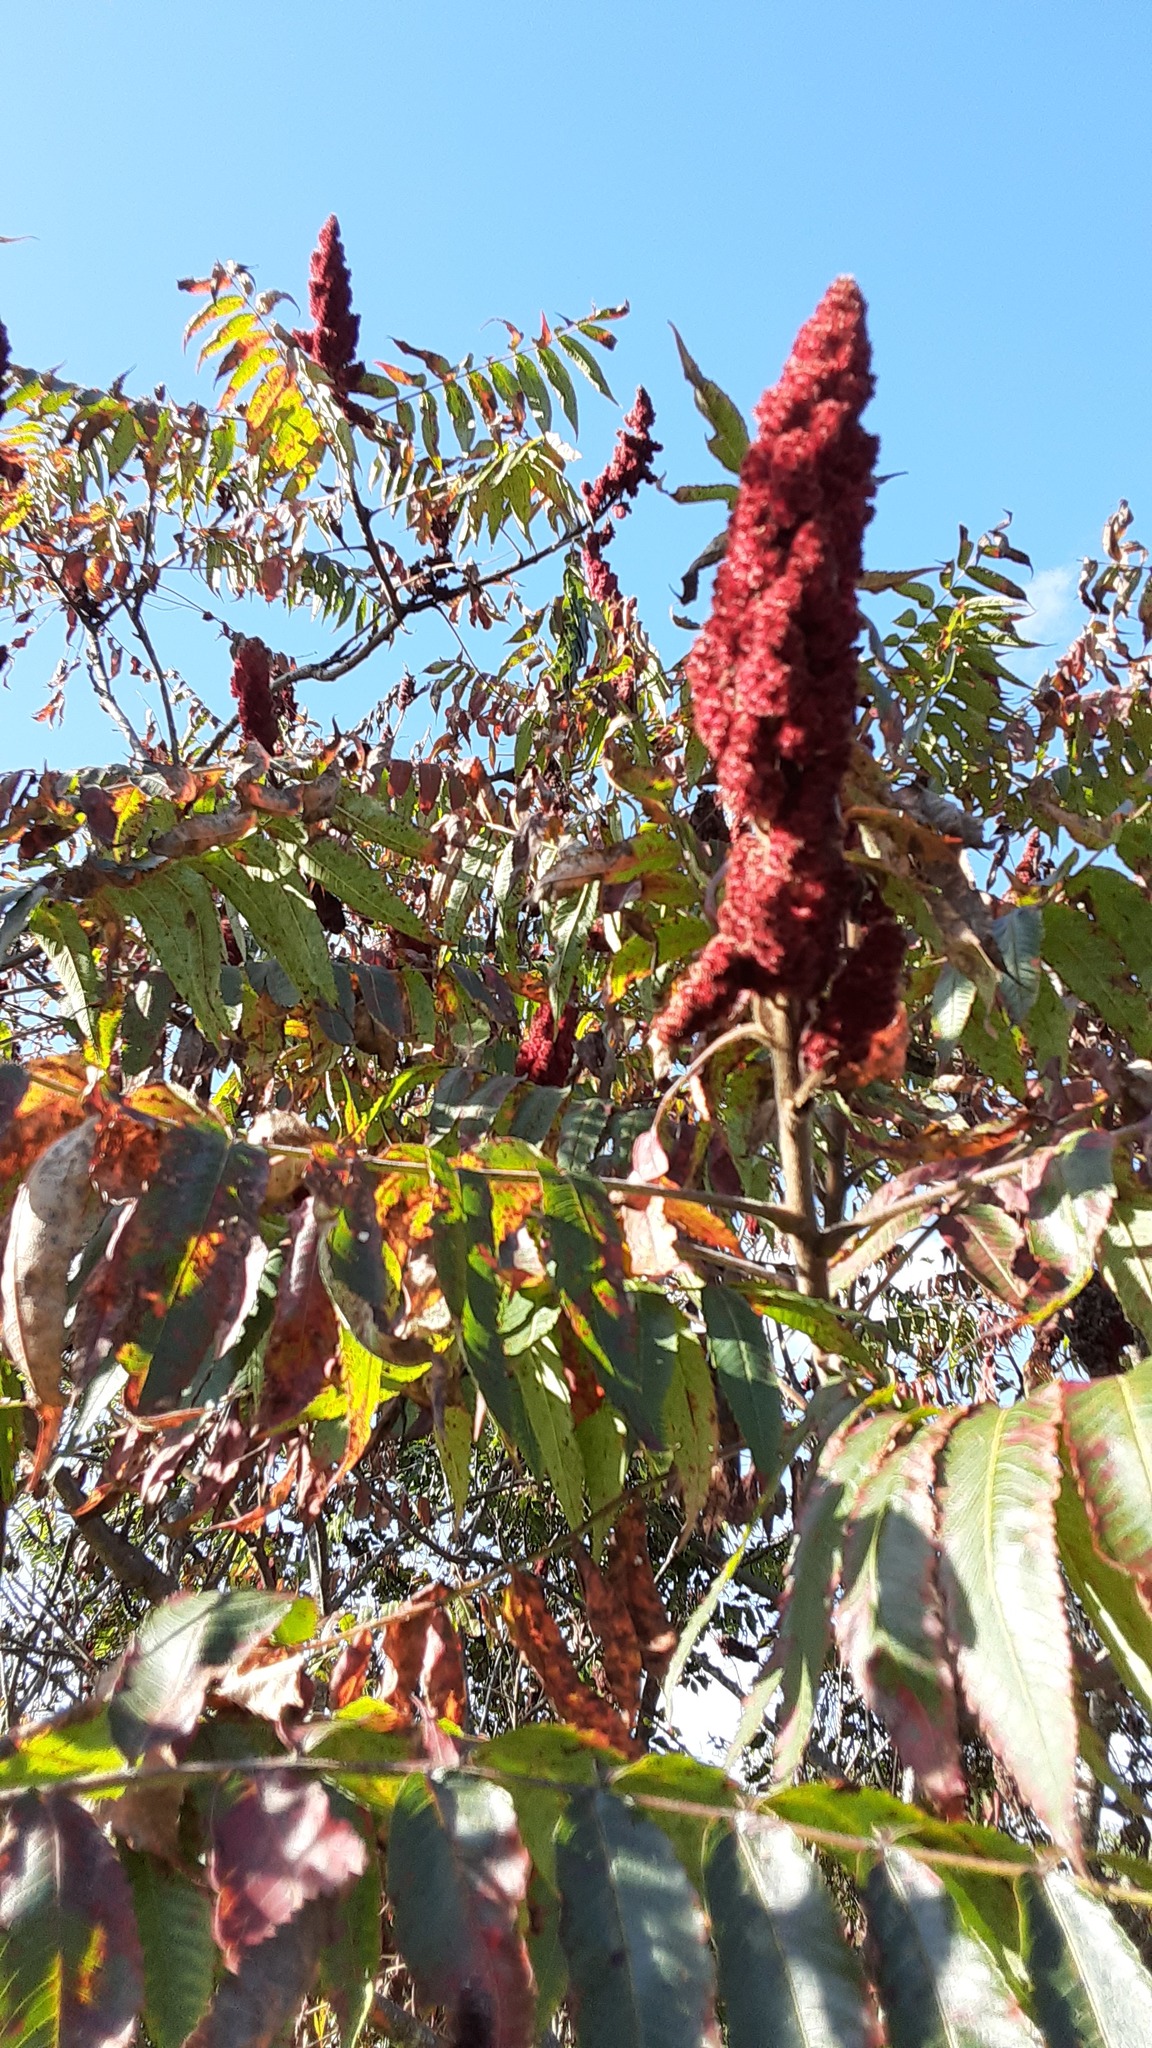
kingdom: Plantae
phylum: Tracheophyta
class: Magnoliopsida
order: Sapindales
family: Anacardiaceae
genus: Rhus
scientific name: Rhus typhina
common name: Staghorn sumac
